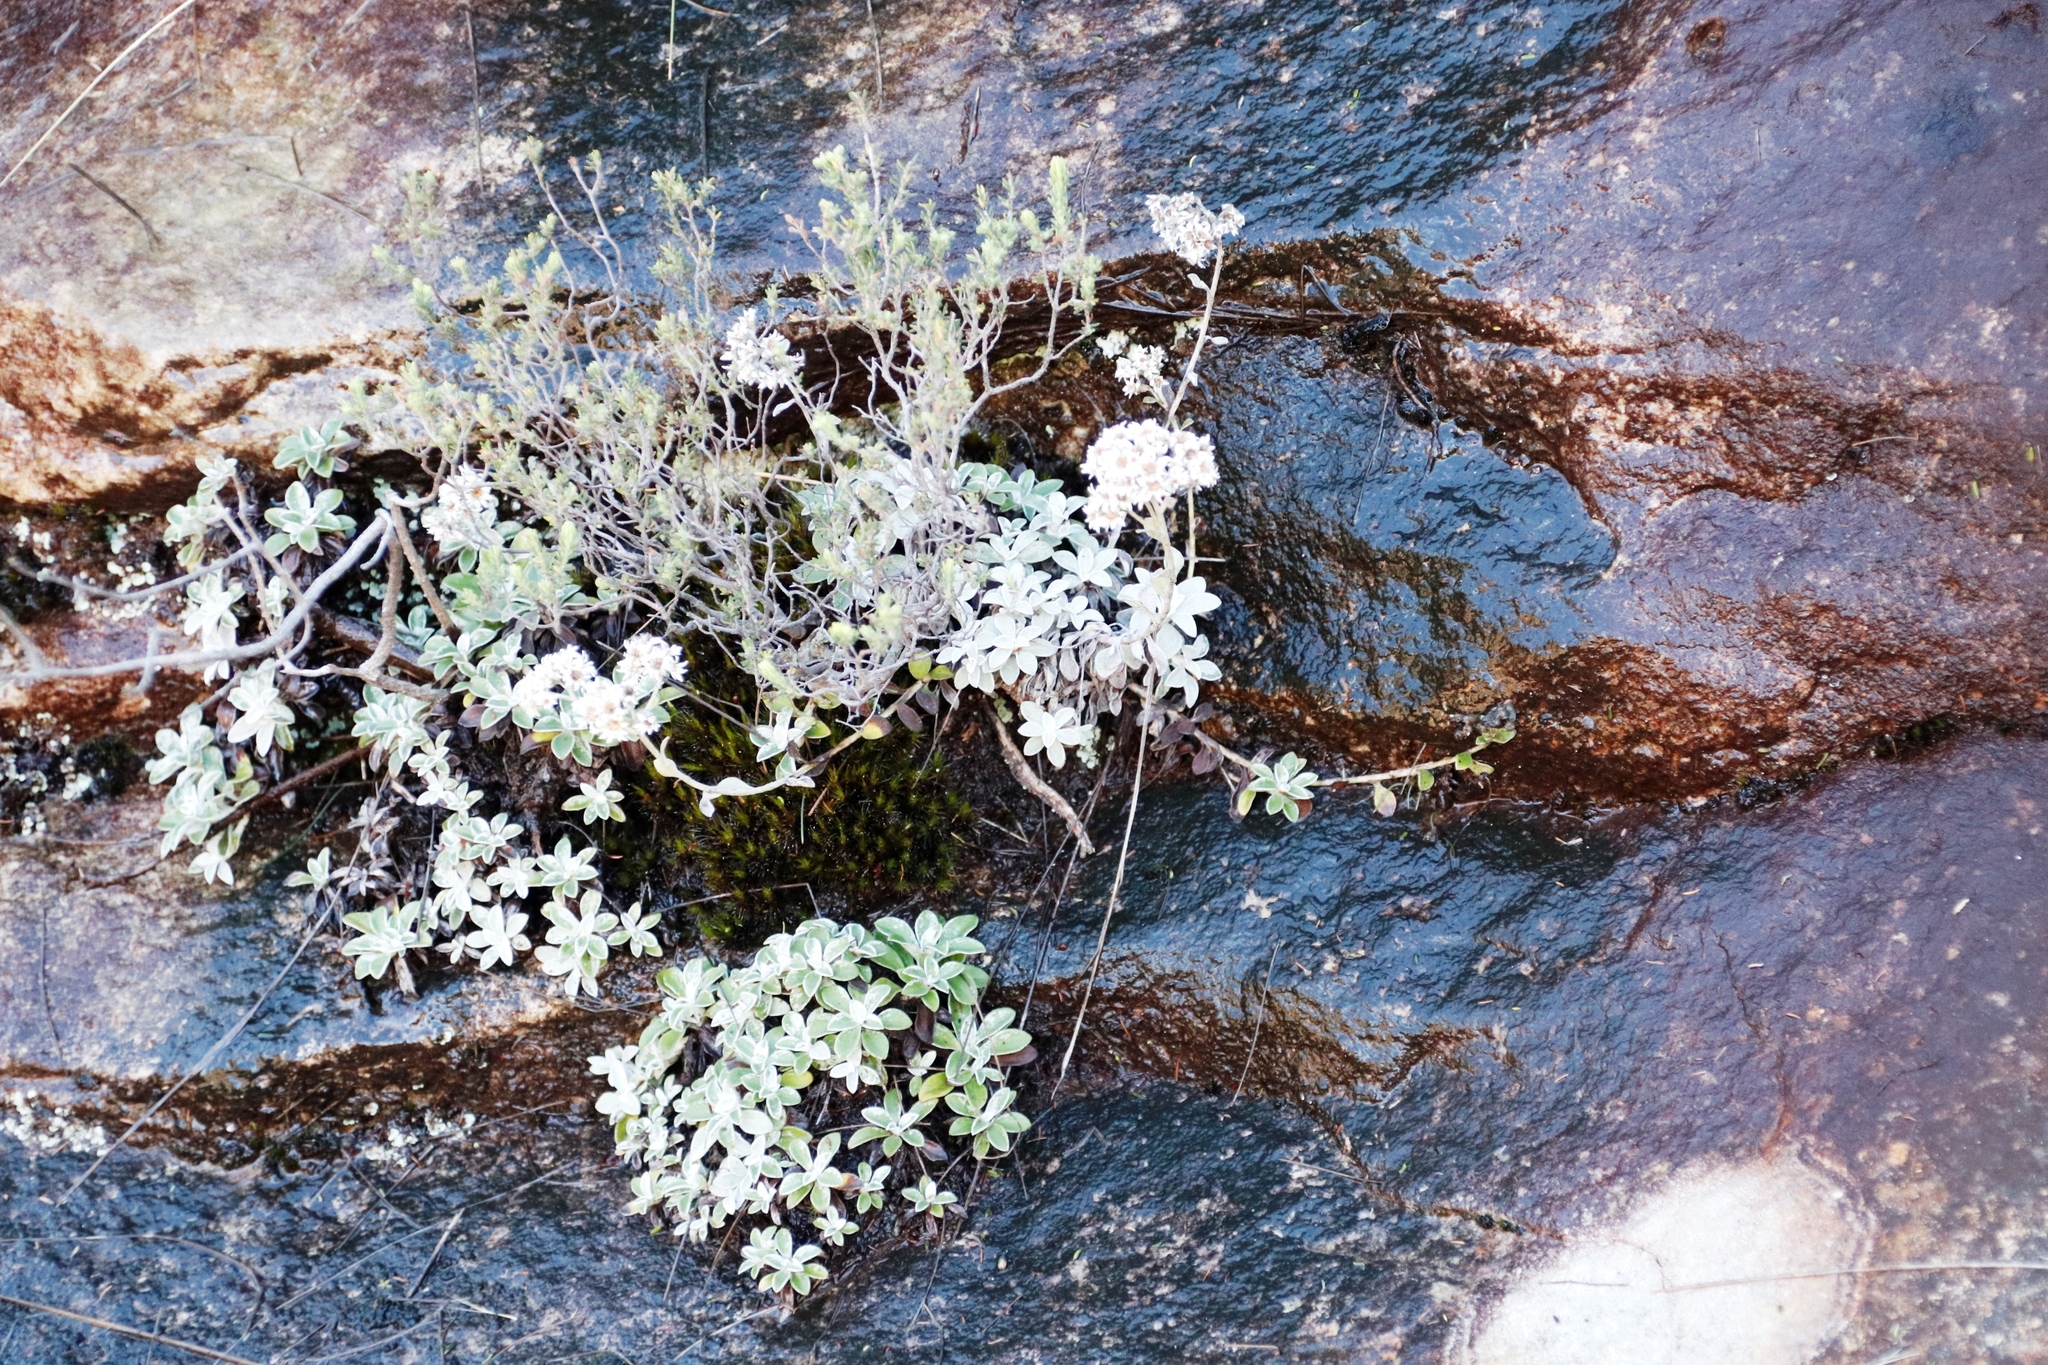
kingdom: Plantae
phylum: Tracheophyta
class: Magnoliopsida
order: Asterales
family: Asteraceae
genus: Helichrysum
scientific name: Helichrysum sutherlandii
